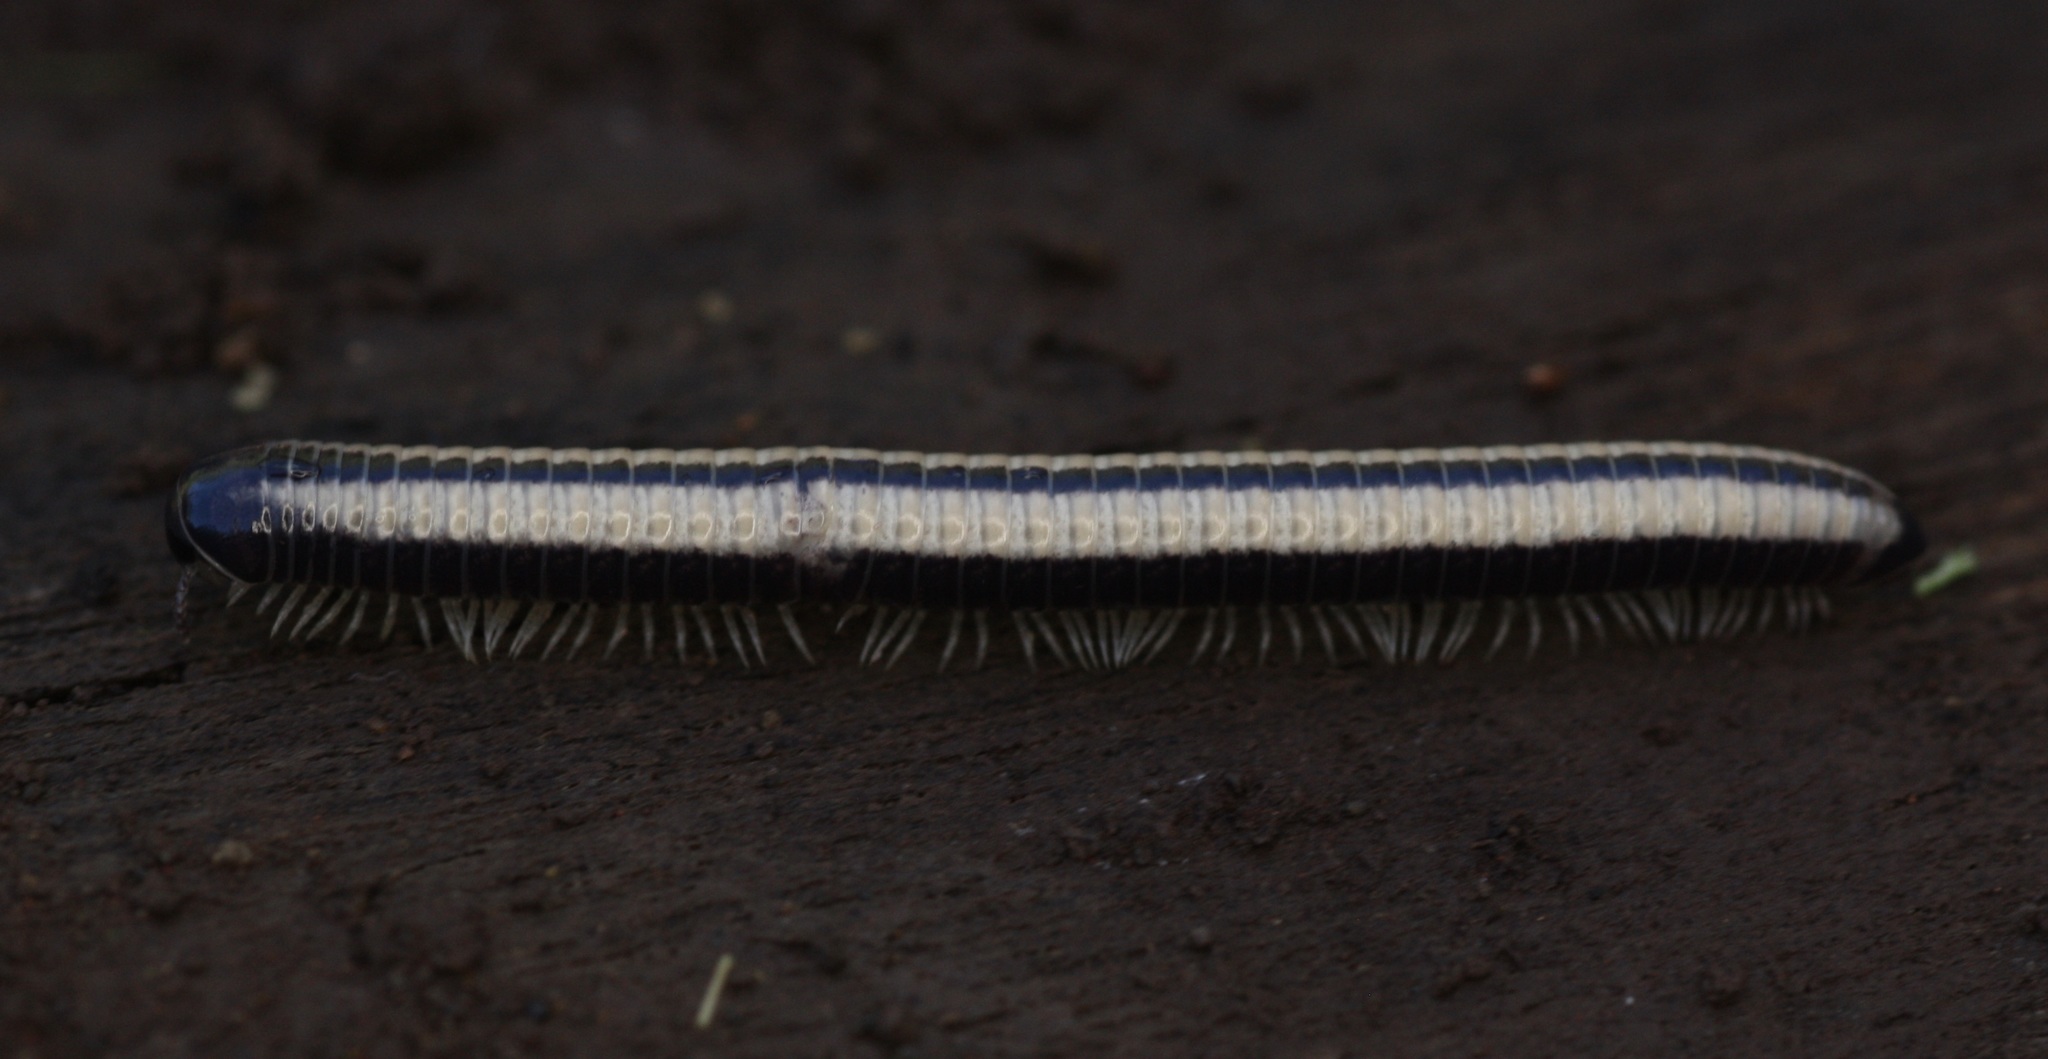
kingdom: Animalia
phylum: Arthropoda
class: Diplopoda
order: Spirobolida
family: Spirobolellidae
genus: Spirobolellus
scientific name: Spirobolellus immigrans
